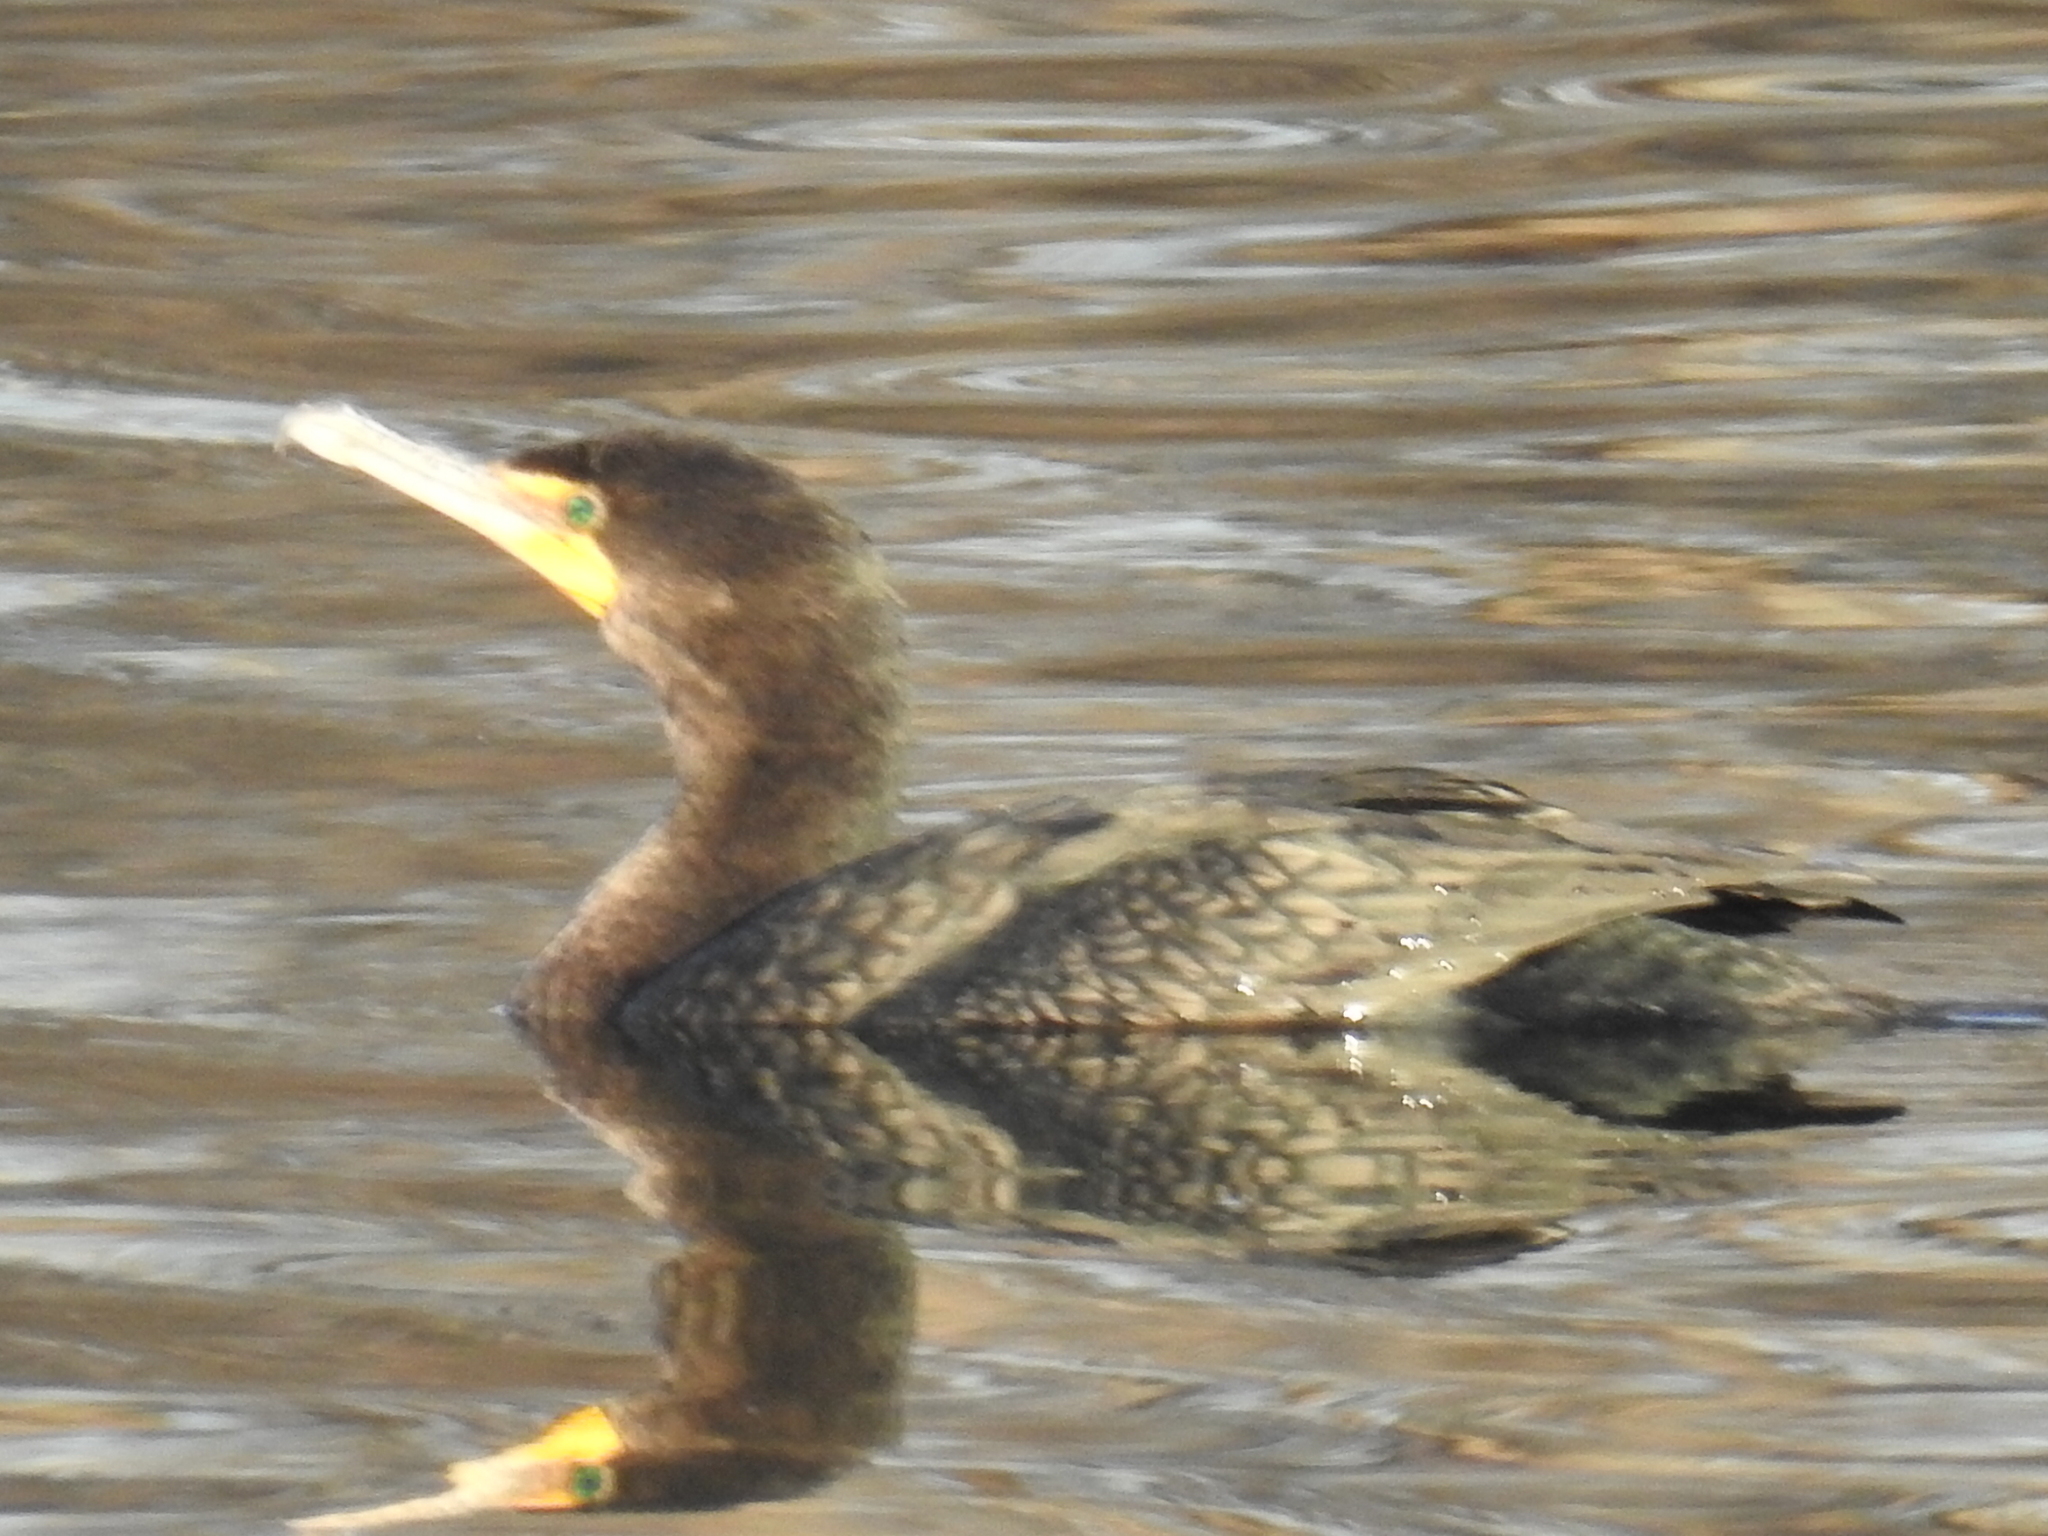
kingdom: Animalia
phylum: Chordata
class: Aves
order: Suliformes
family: Phalacrocoracidae
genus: Phalacrocorax
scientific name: Phalacrocorax auritus
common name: Double-crested cormorant
